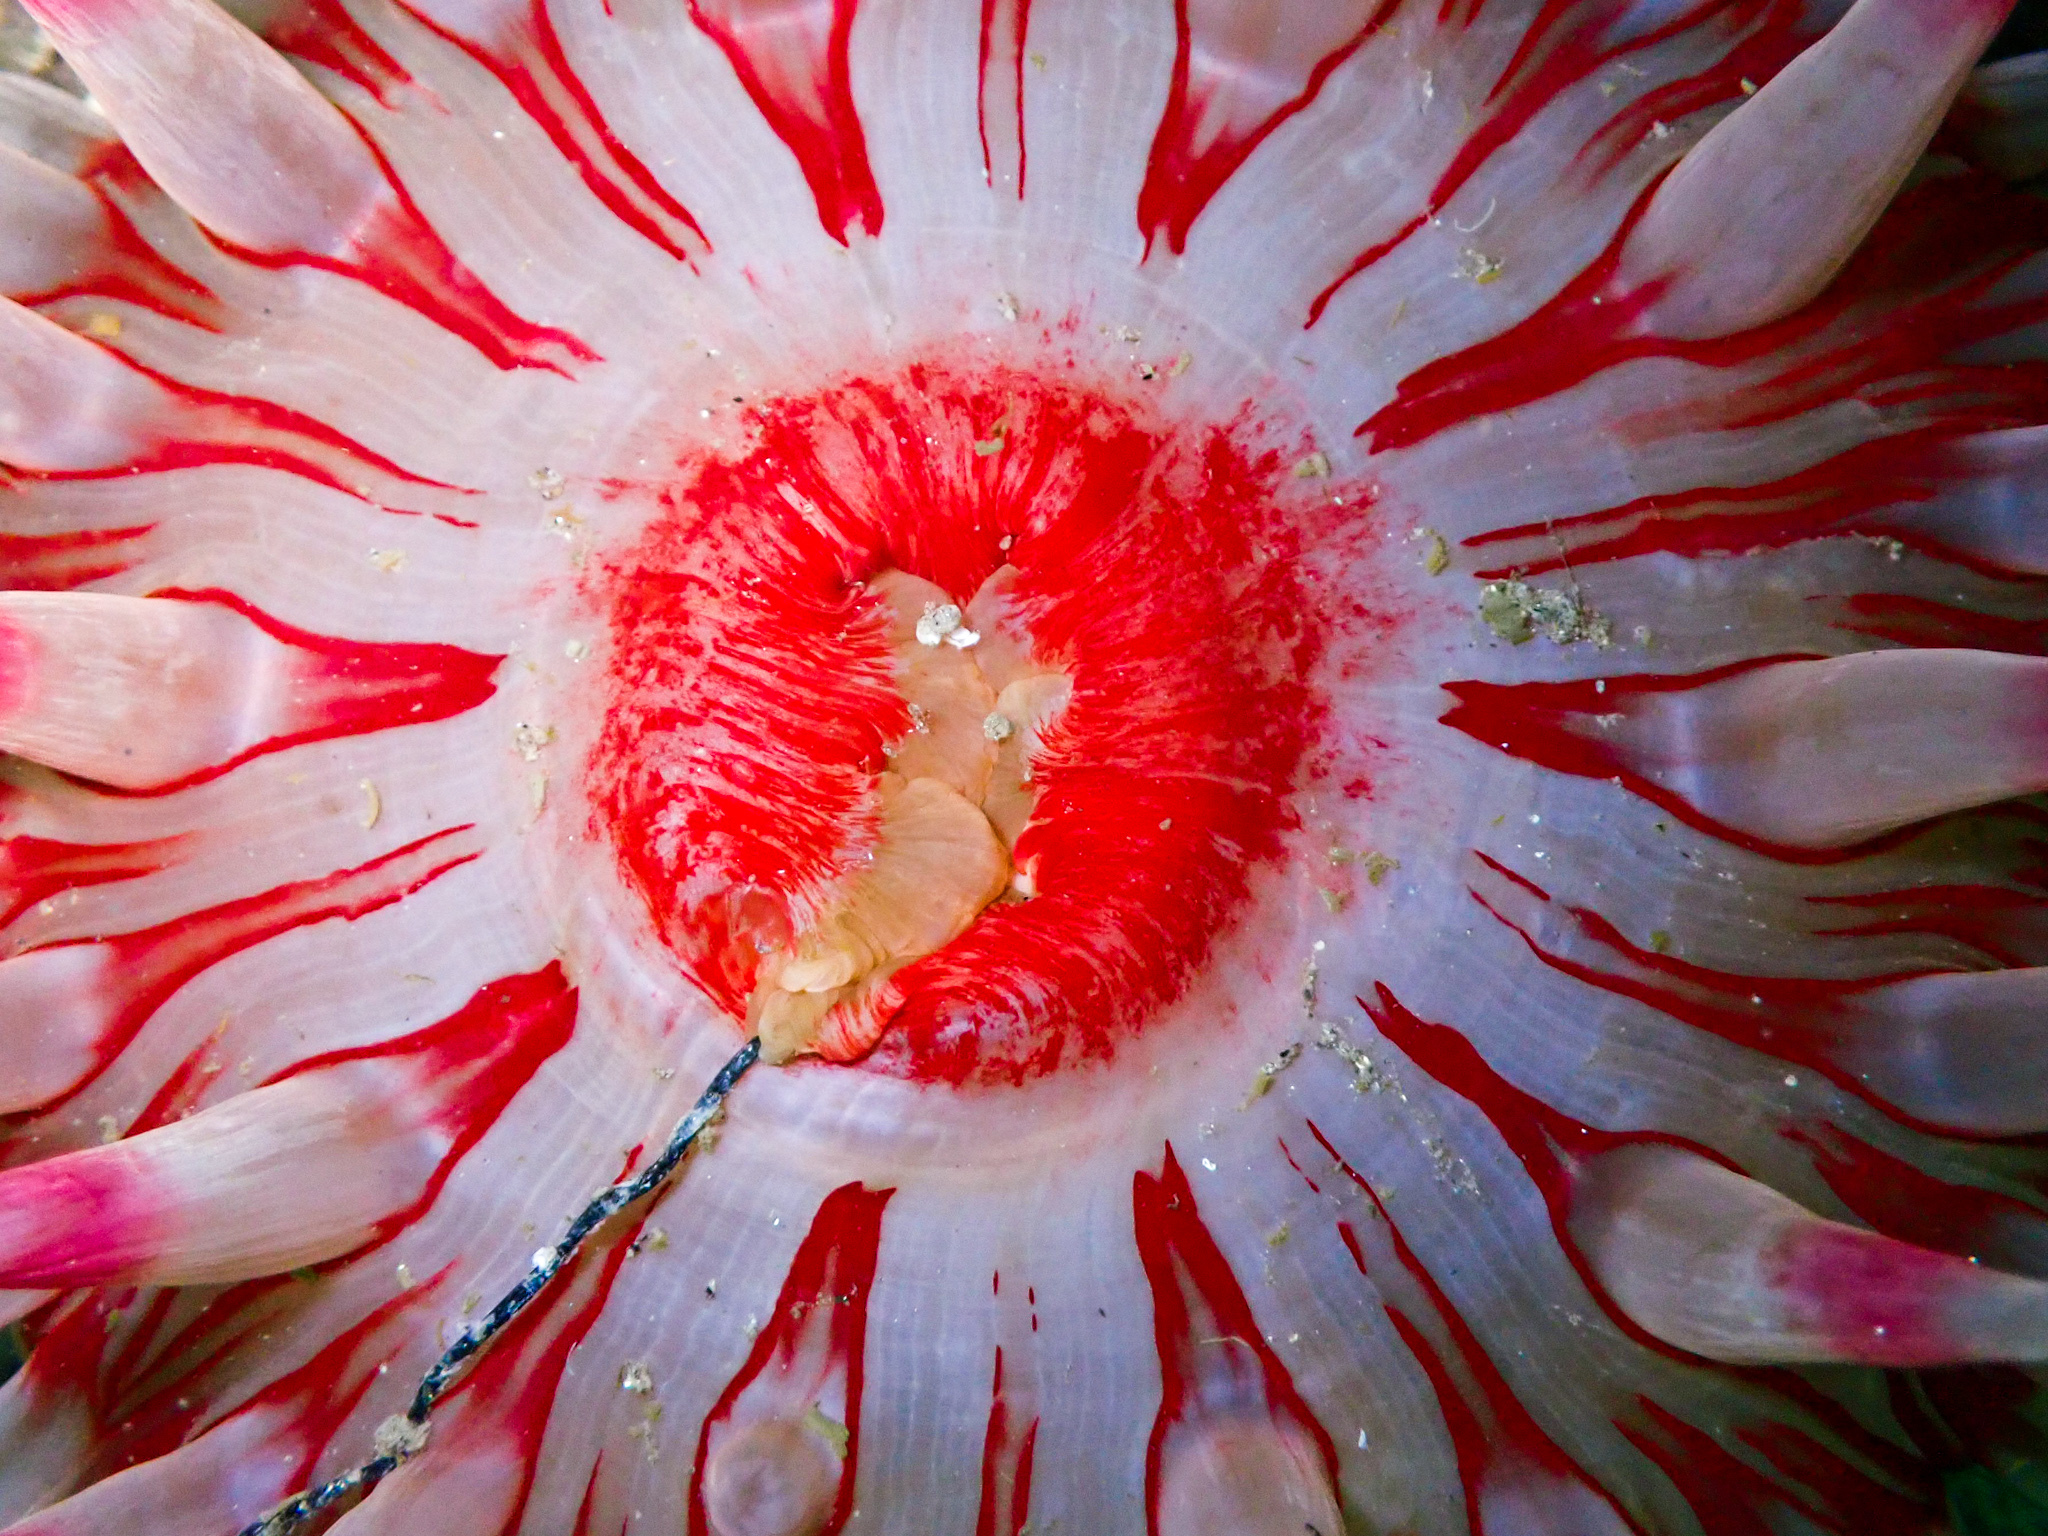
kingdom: Animalia
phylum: Cnidaria
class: Anthozoa
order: Actiniaria
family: Actiniidae
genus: Urticina
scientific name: Urticina felina
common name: Dahlia anemone
